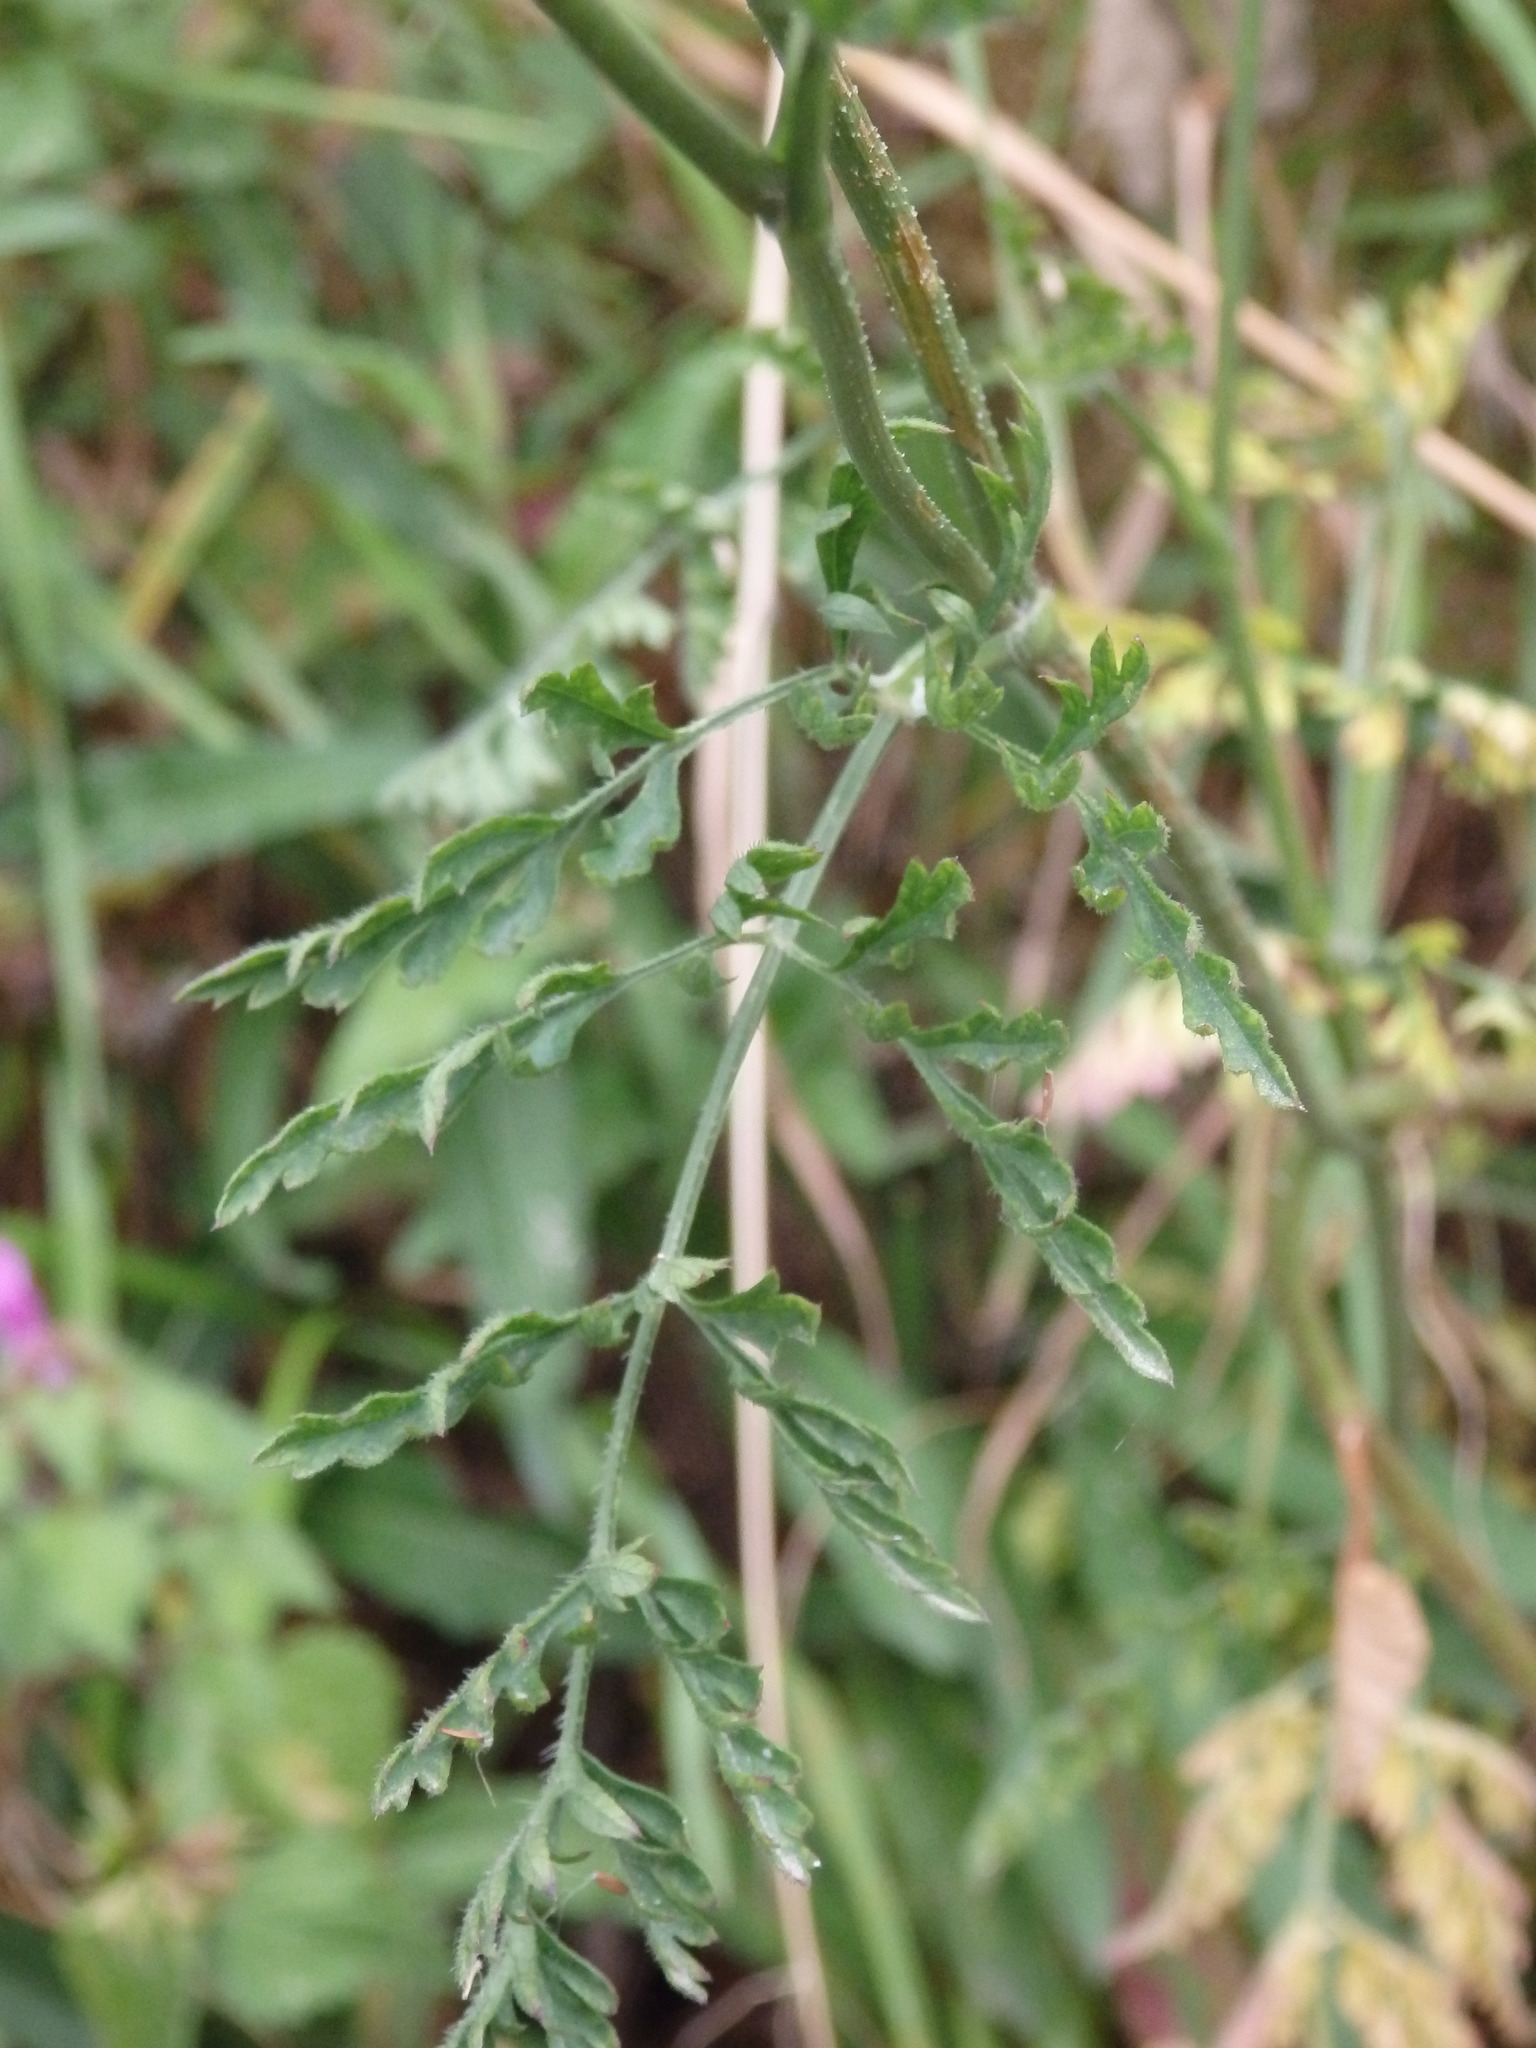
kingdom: Plantae
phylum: Tracheophyta
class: Magnoliopsida
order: Apiales
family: Apiaceae
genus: Daucus
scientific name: Daucus carota
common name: Wild carrot
